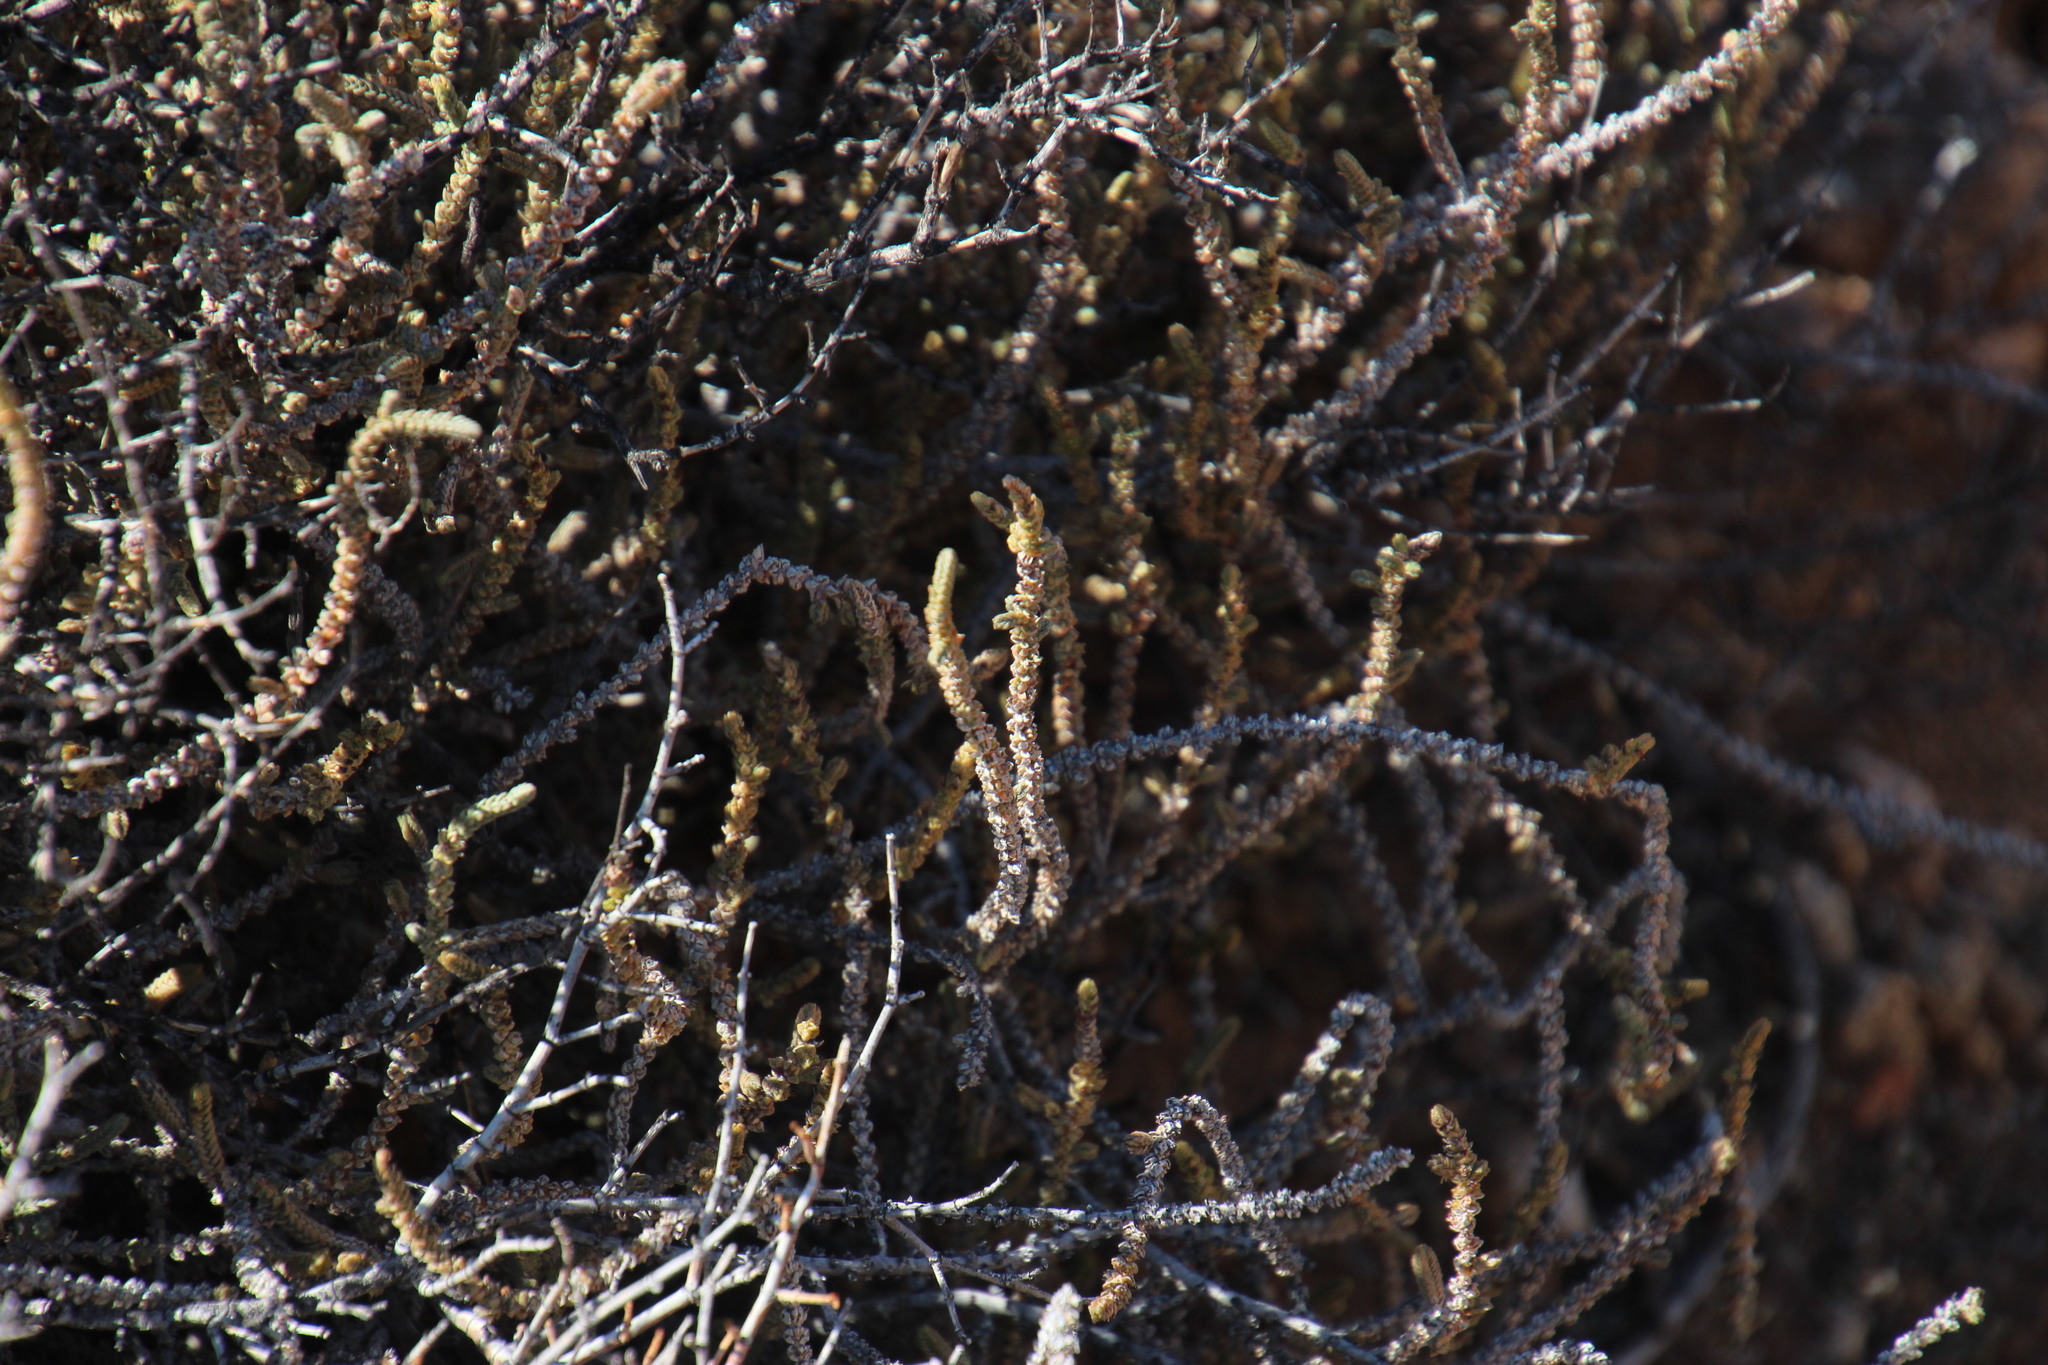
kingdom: Plantae
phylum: Tracheophyta
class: Magnoliopsida
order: Saxifragales
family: Crassulaceae
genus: Crassula
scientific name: Crassula muscosa
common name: Toy-cypress
